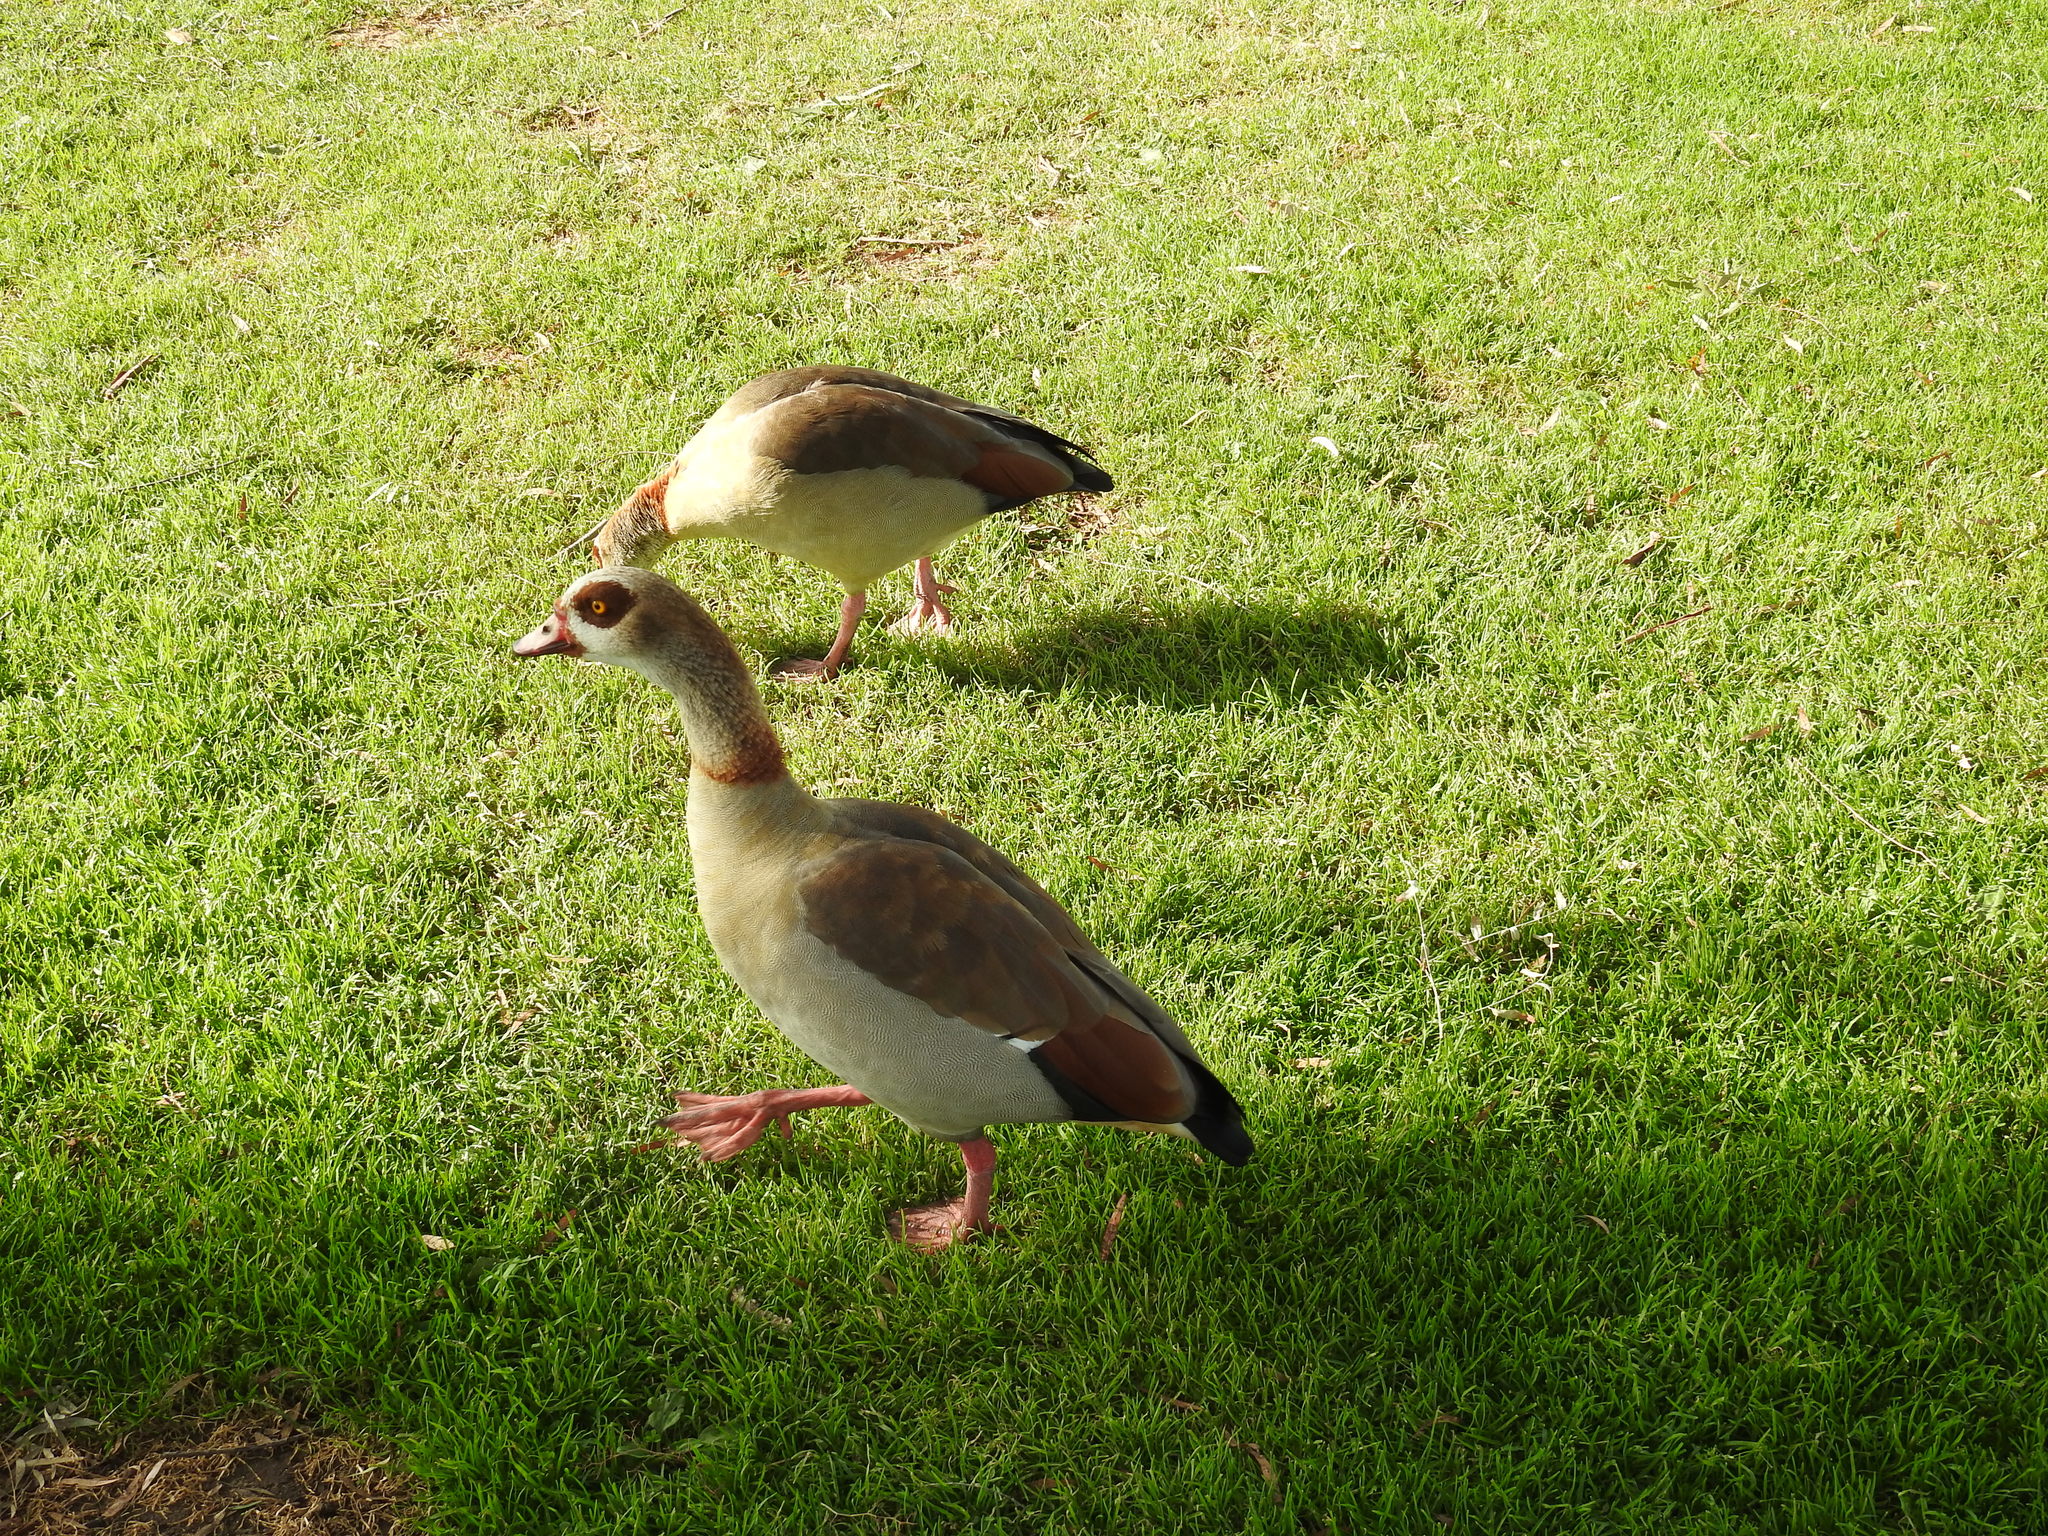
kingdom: Animalia
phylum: Chordata
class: Aves
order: Anseriformes
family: Anatidae
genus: Alopochen
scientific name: Alopochen aegyptiaca
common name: Egyptian goose
